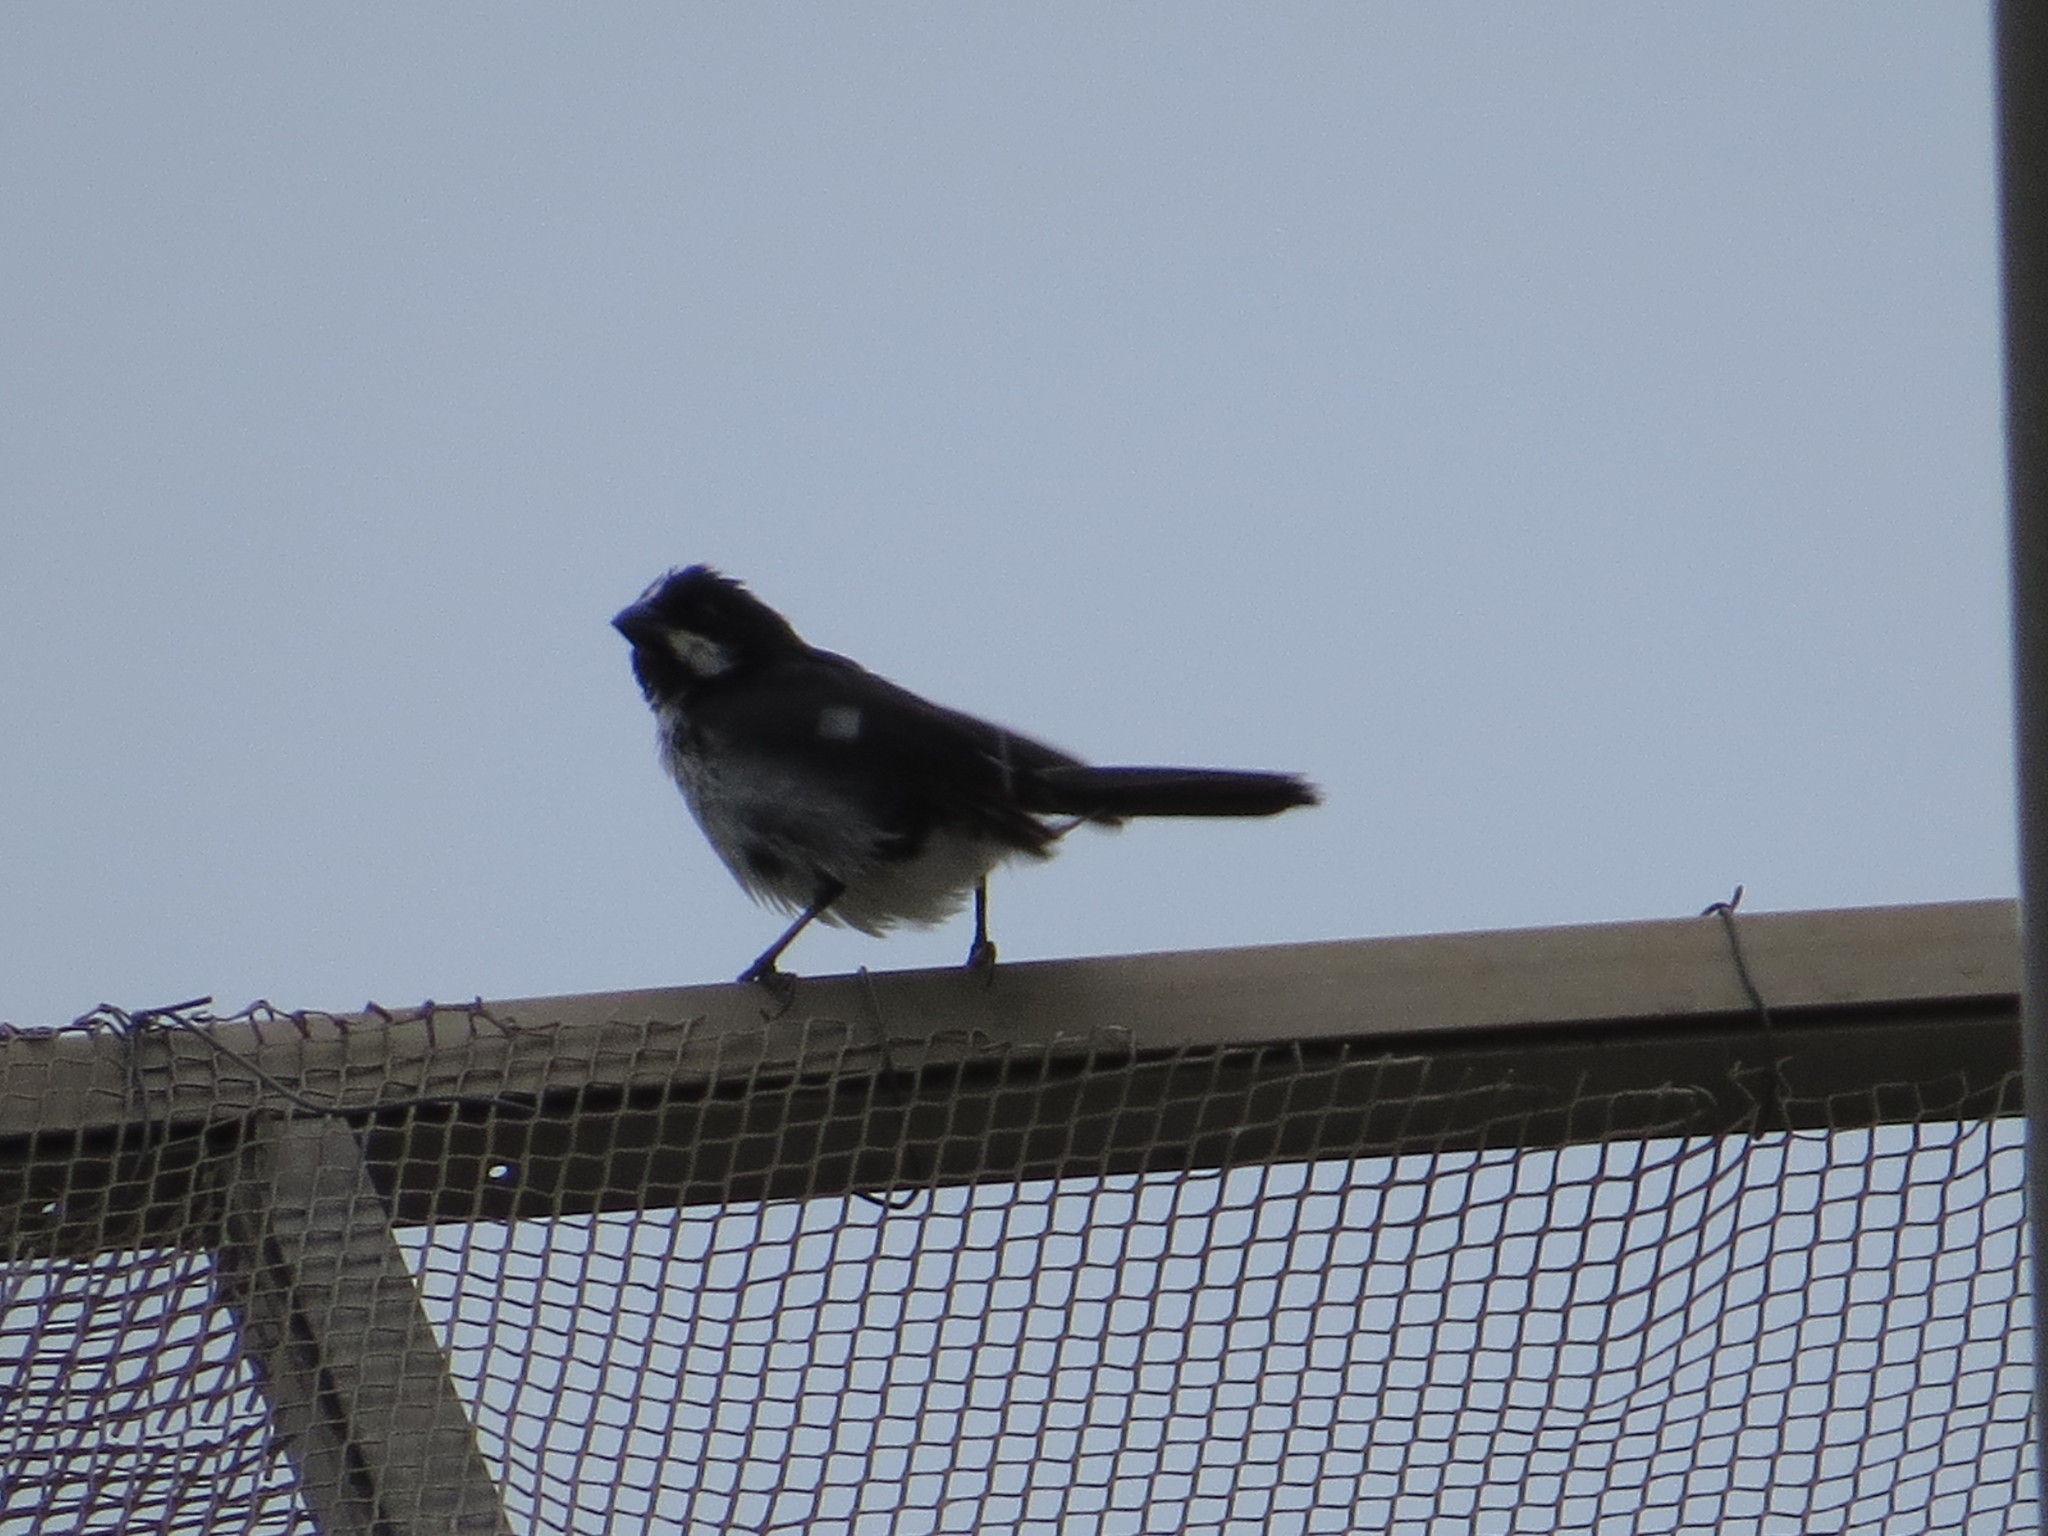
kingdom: Animalia
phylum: Chordata
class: Aves
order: Passeriformes
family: Thraupidae
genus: Sporophila
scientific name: Sporophila lineola
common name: Lined seedeater
